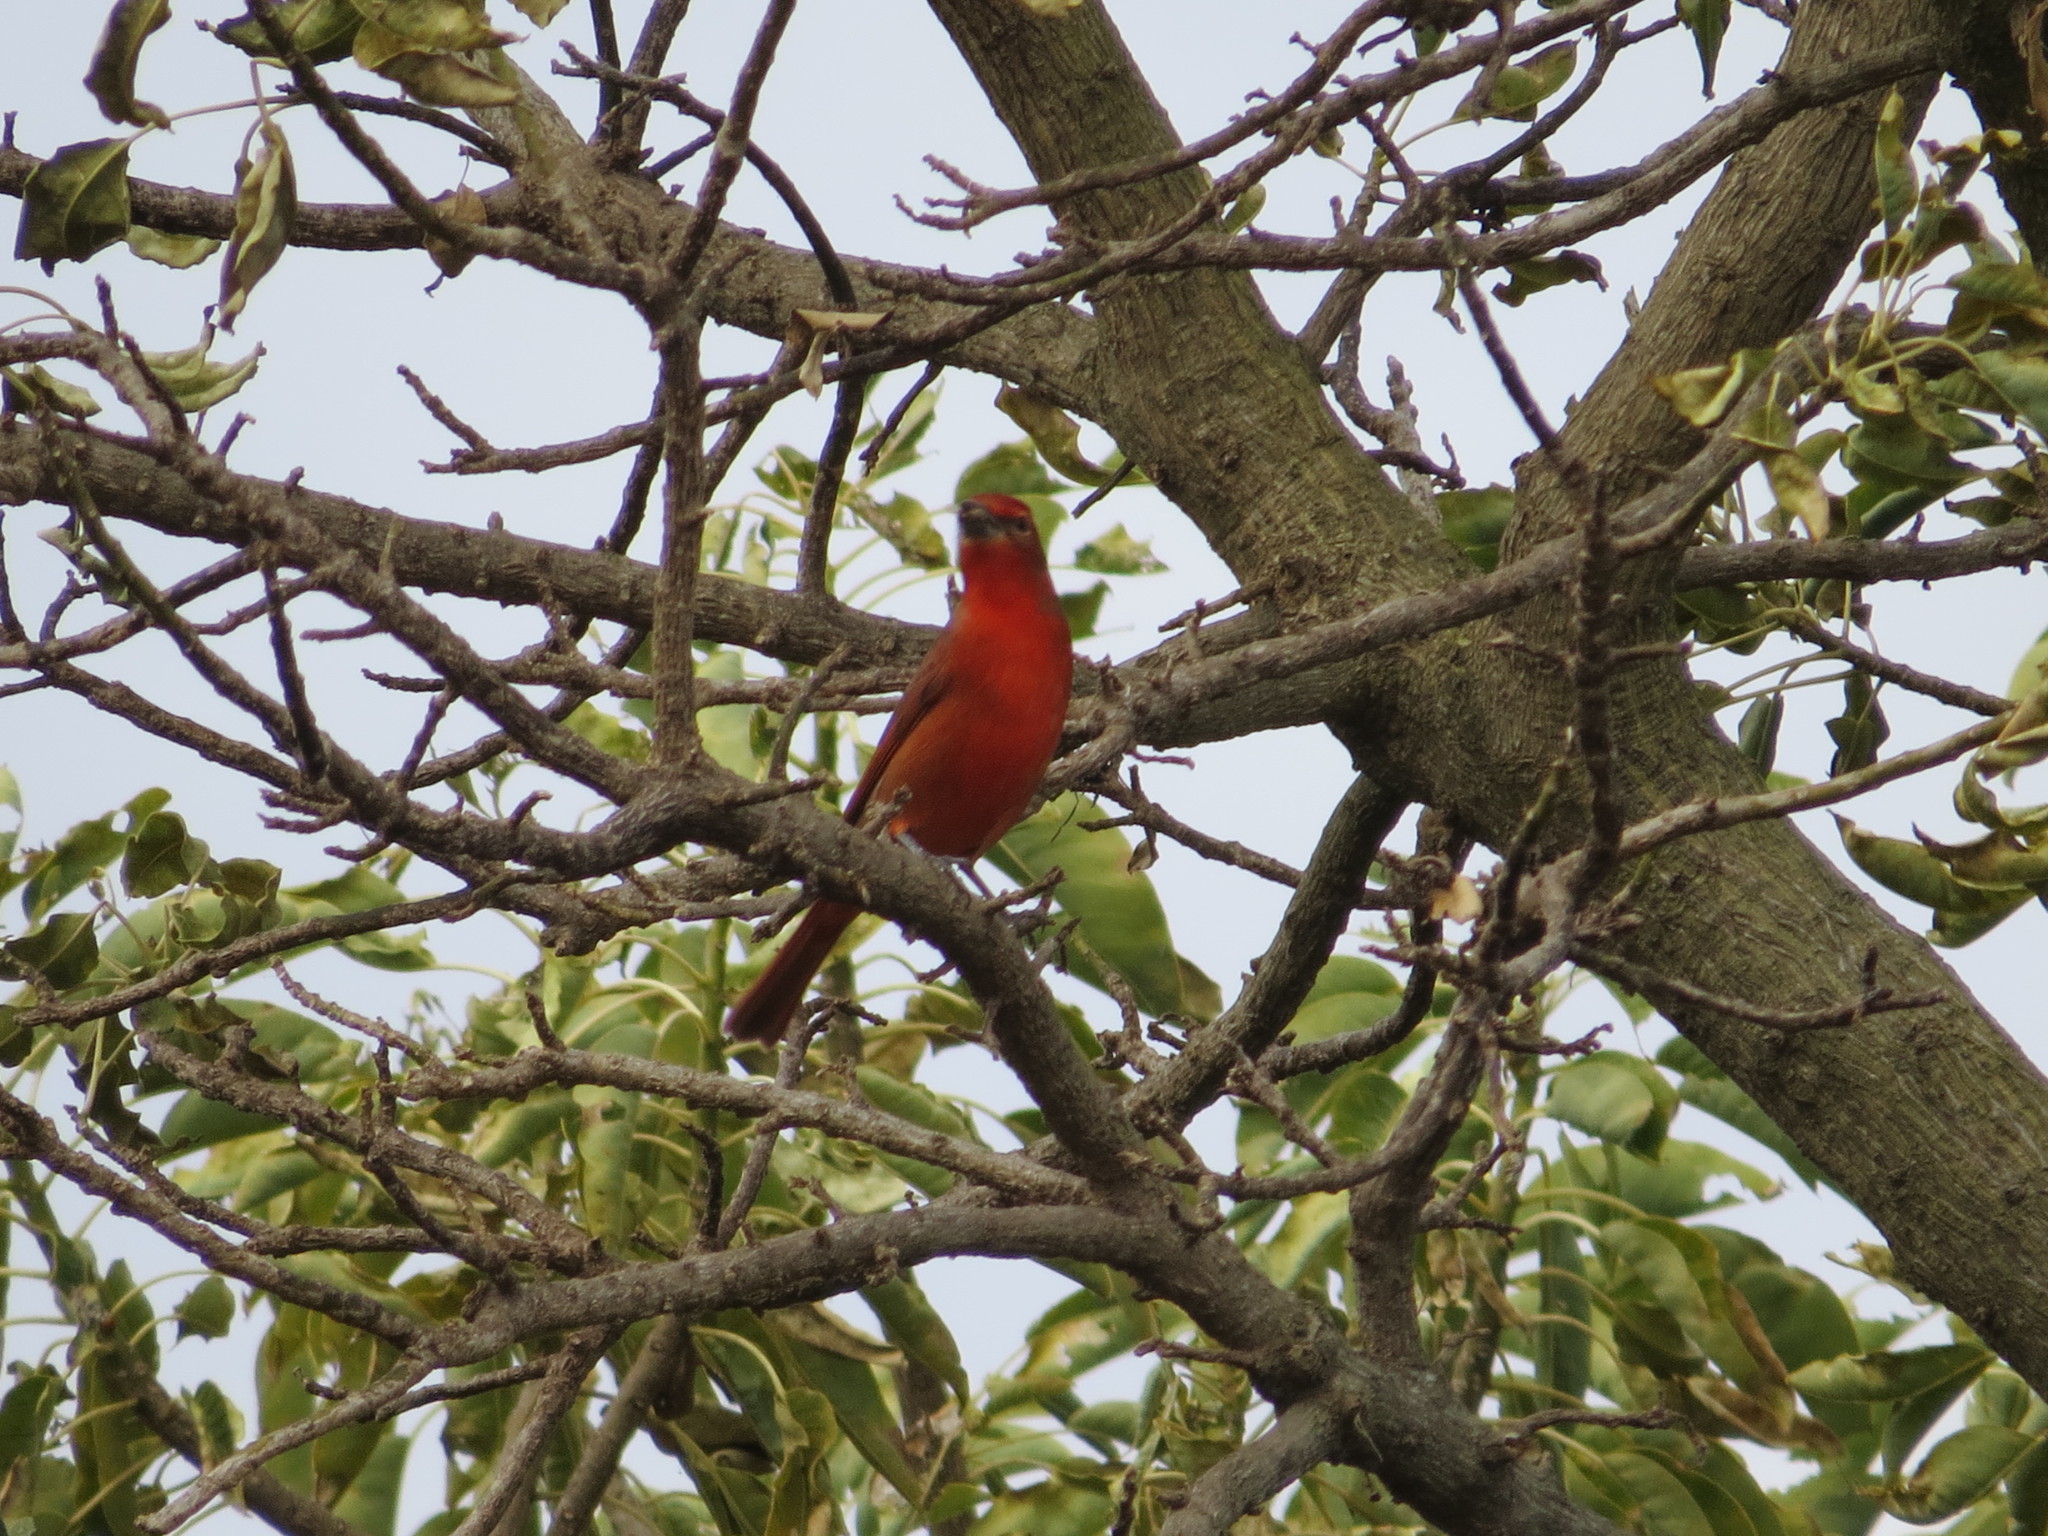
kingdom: Animalia
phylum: Chordata
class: Aves
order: Passeriformes
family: Cardinalidae
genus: Piranga
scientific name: Piranga flava
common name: Red tanager
